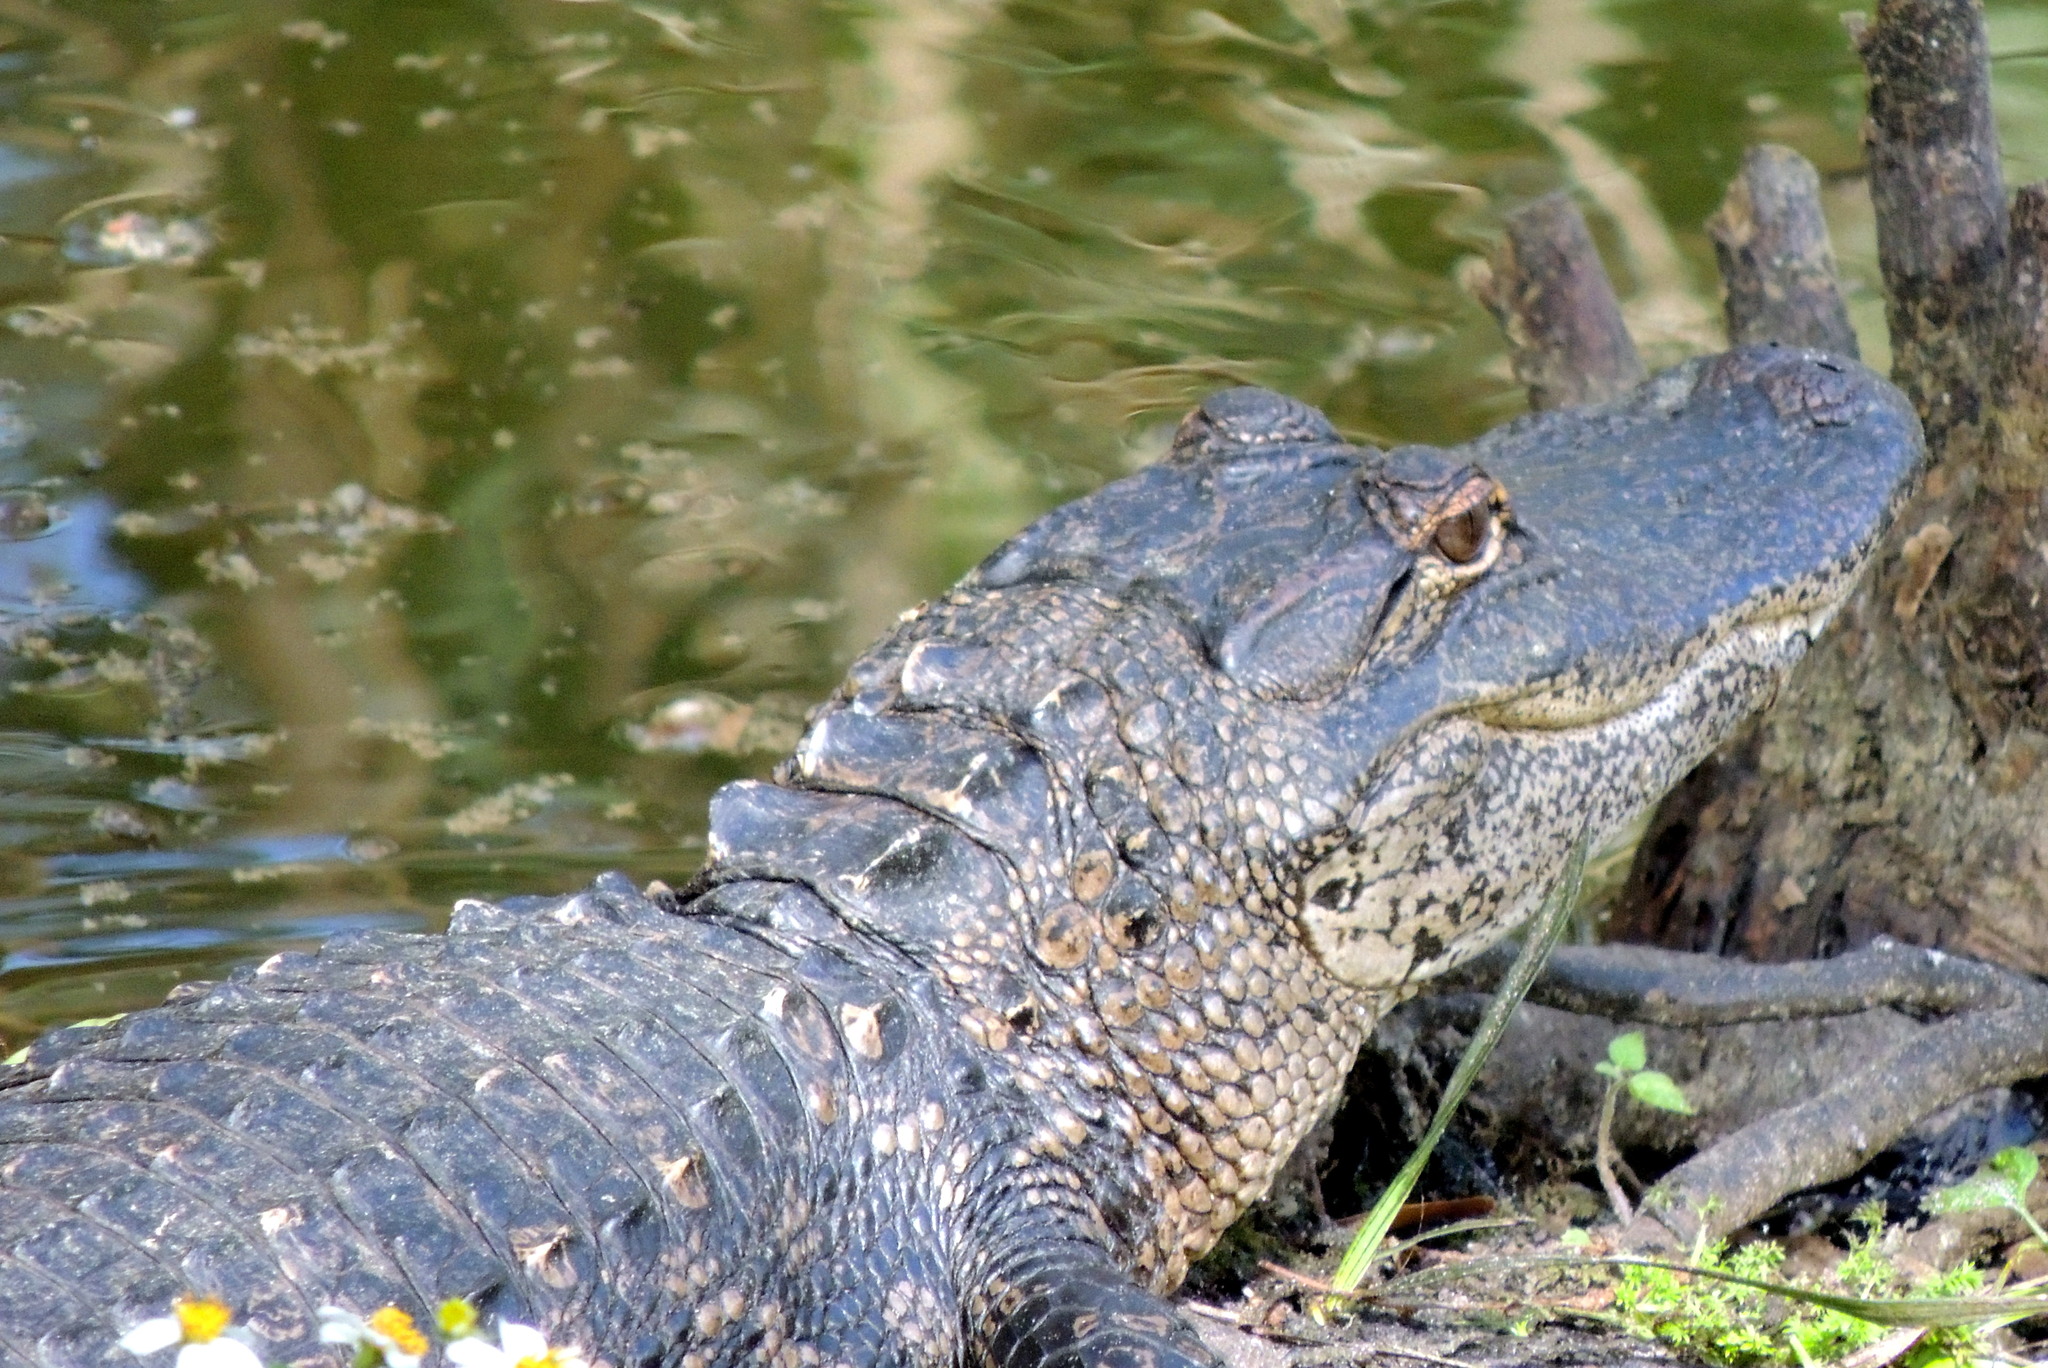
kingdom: Animalia
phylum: Chordata
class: Crocodylia
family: Alligatoridae
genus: Alligator
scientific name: Alligator mississippiensis
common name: American alligator
